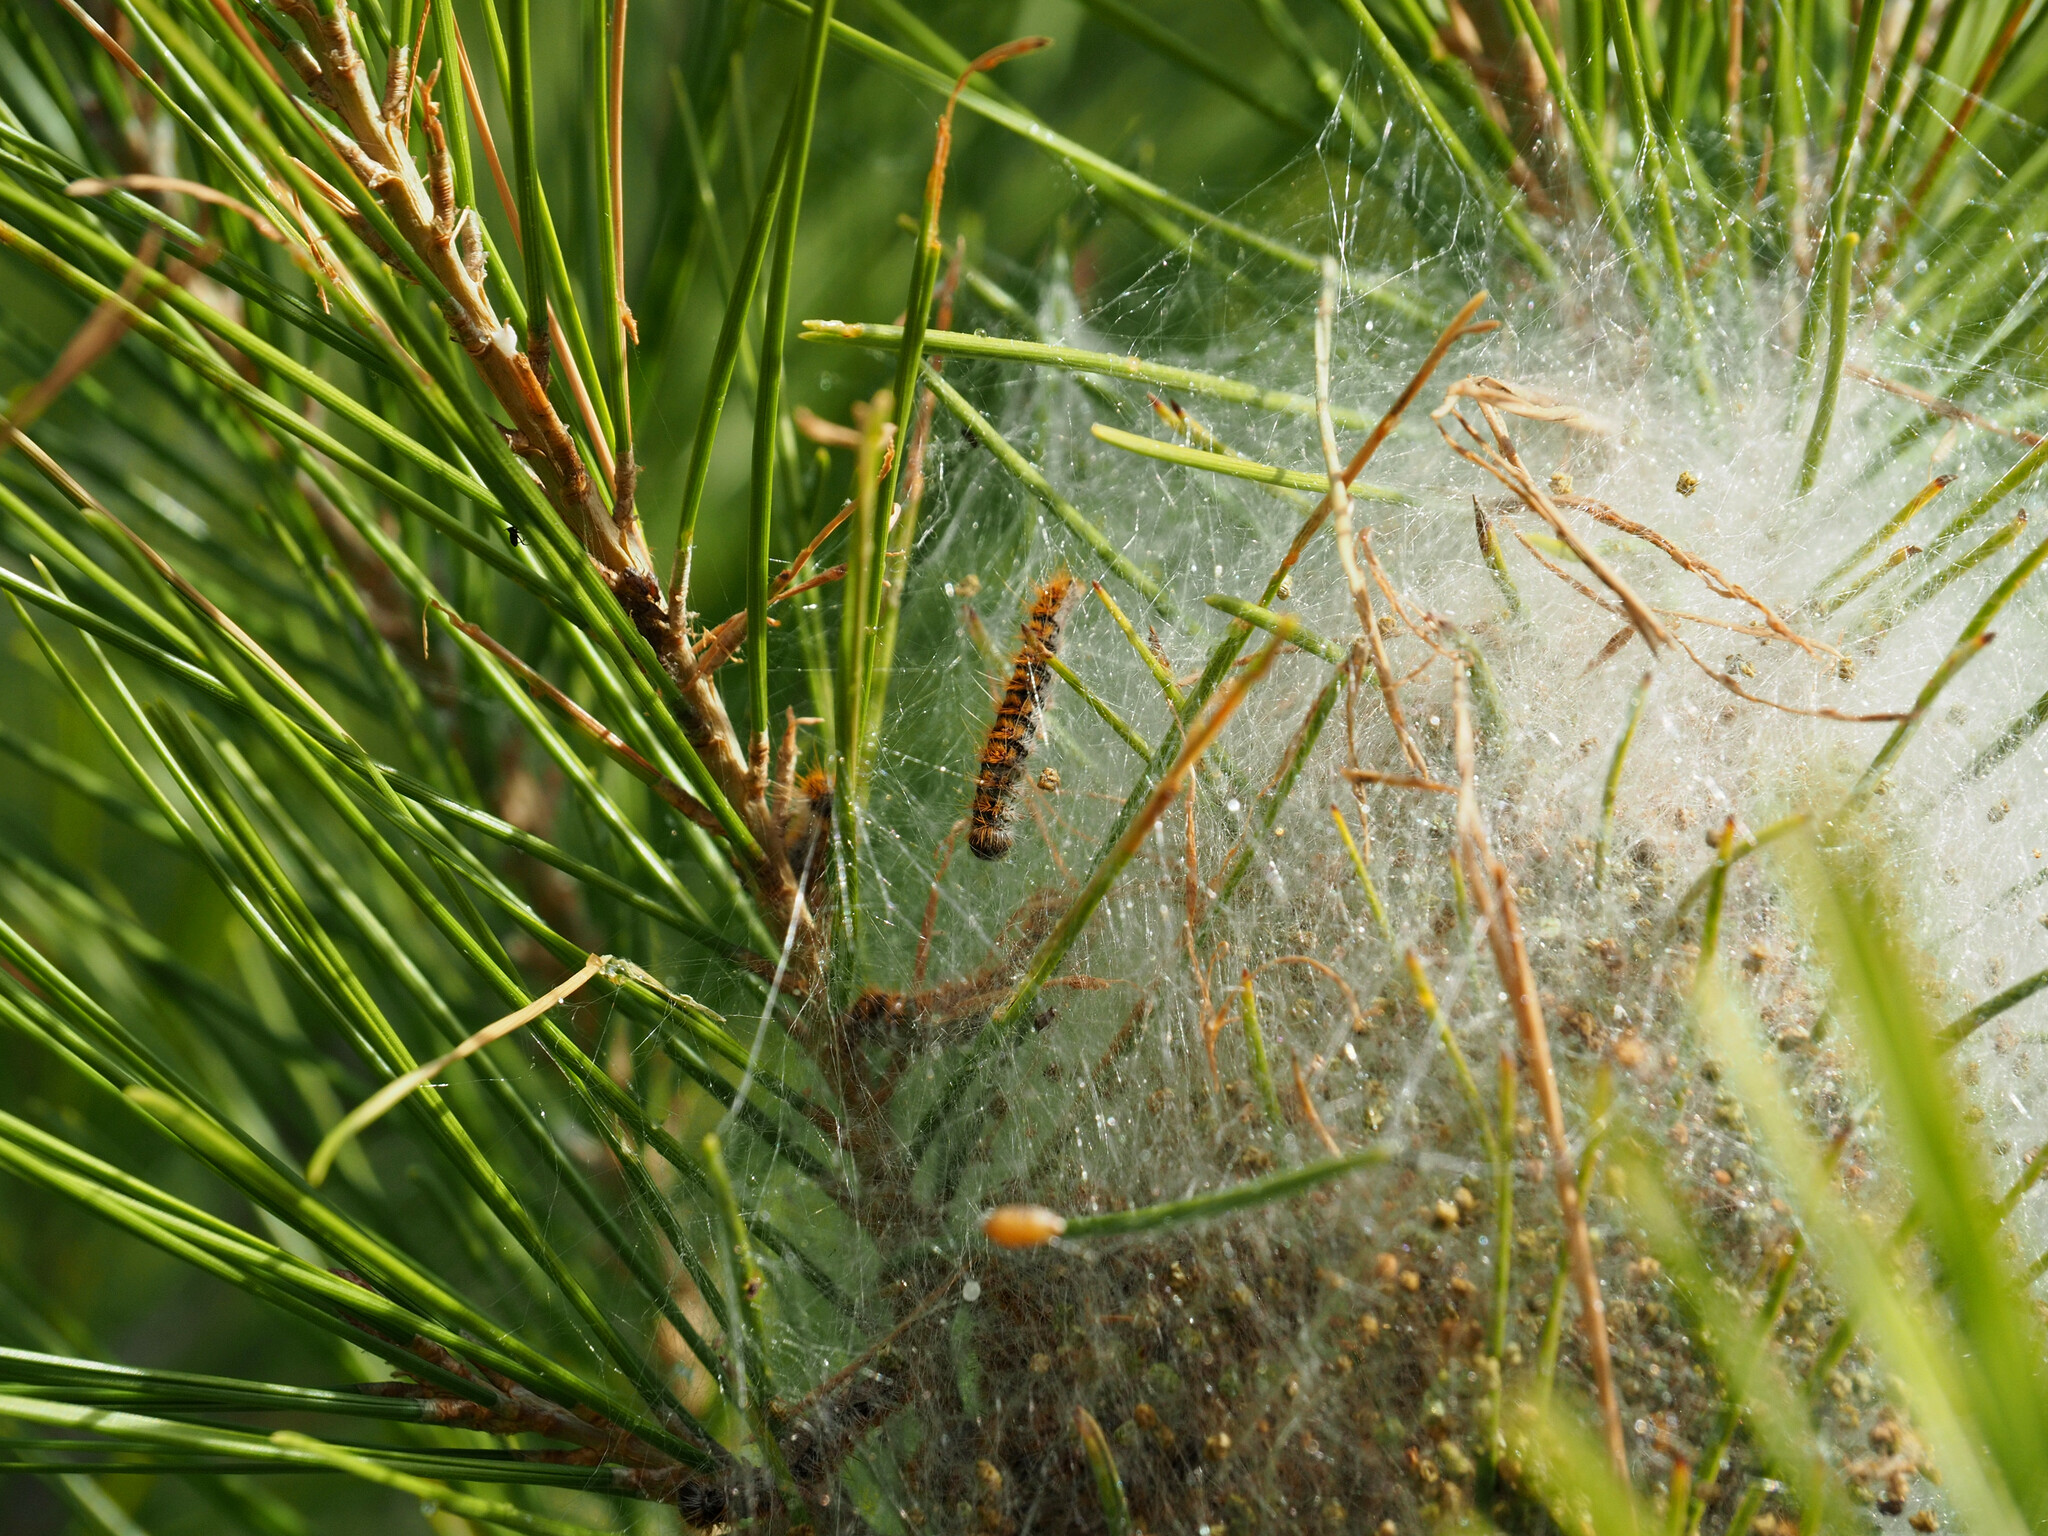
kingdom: Animalia
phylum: Arthropoda
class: Insecta
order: Lepidoptera
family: Notodontidae
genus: Thaumetopoea
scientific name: Thaumetopoea pityocampa
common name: Pine processionary
